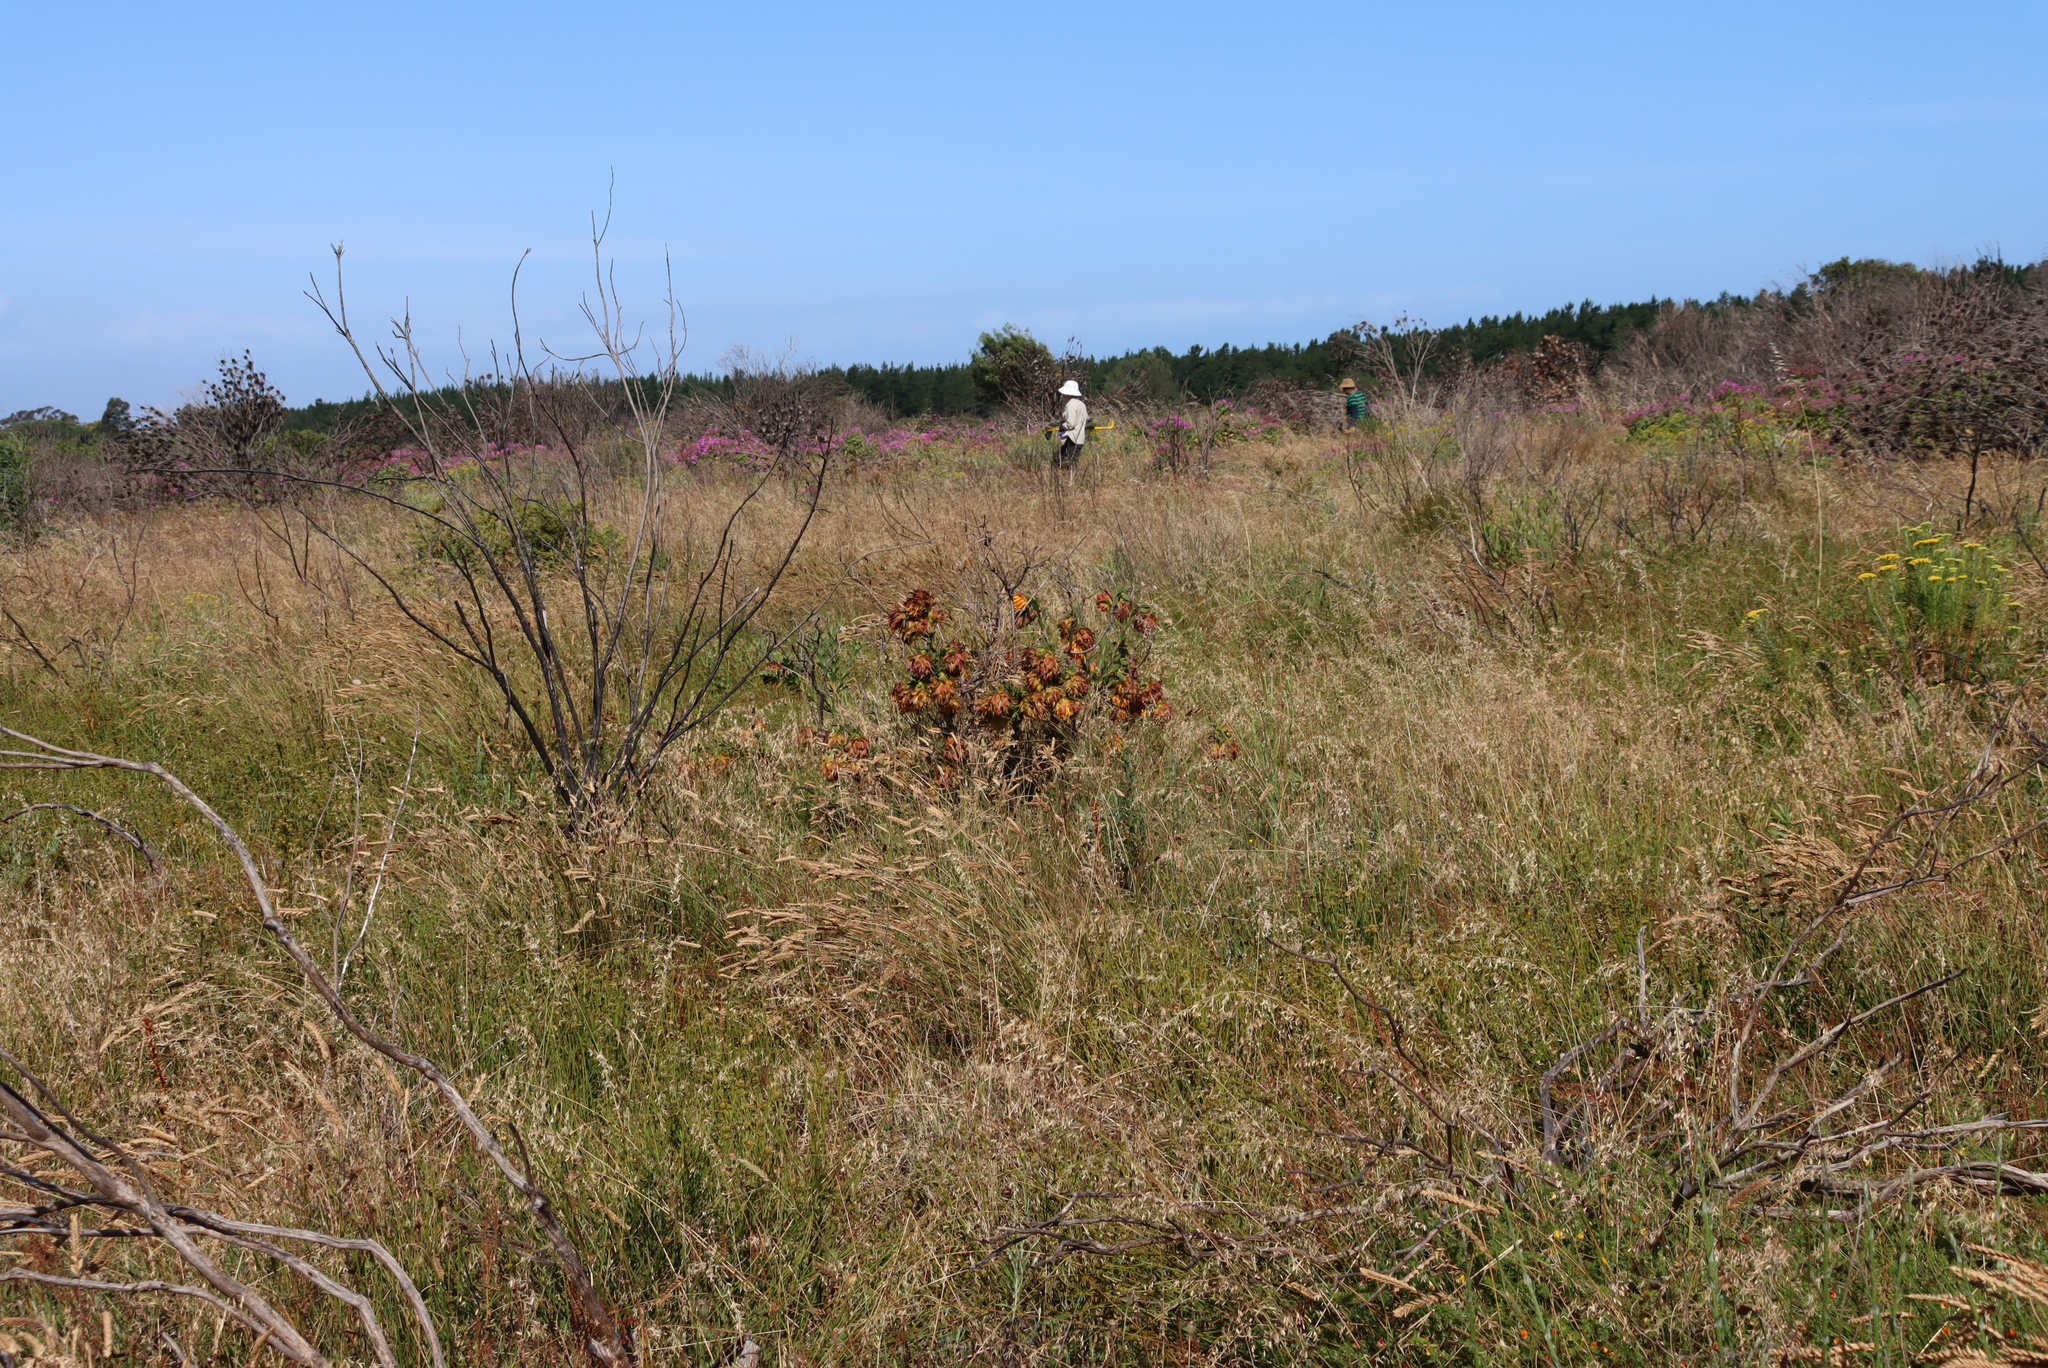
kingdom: Plantae
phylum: Tracheophyta
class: Magnoliopsida
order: Fabales
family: Fabaceae
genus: Liparia
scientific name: Liparia splendens
